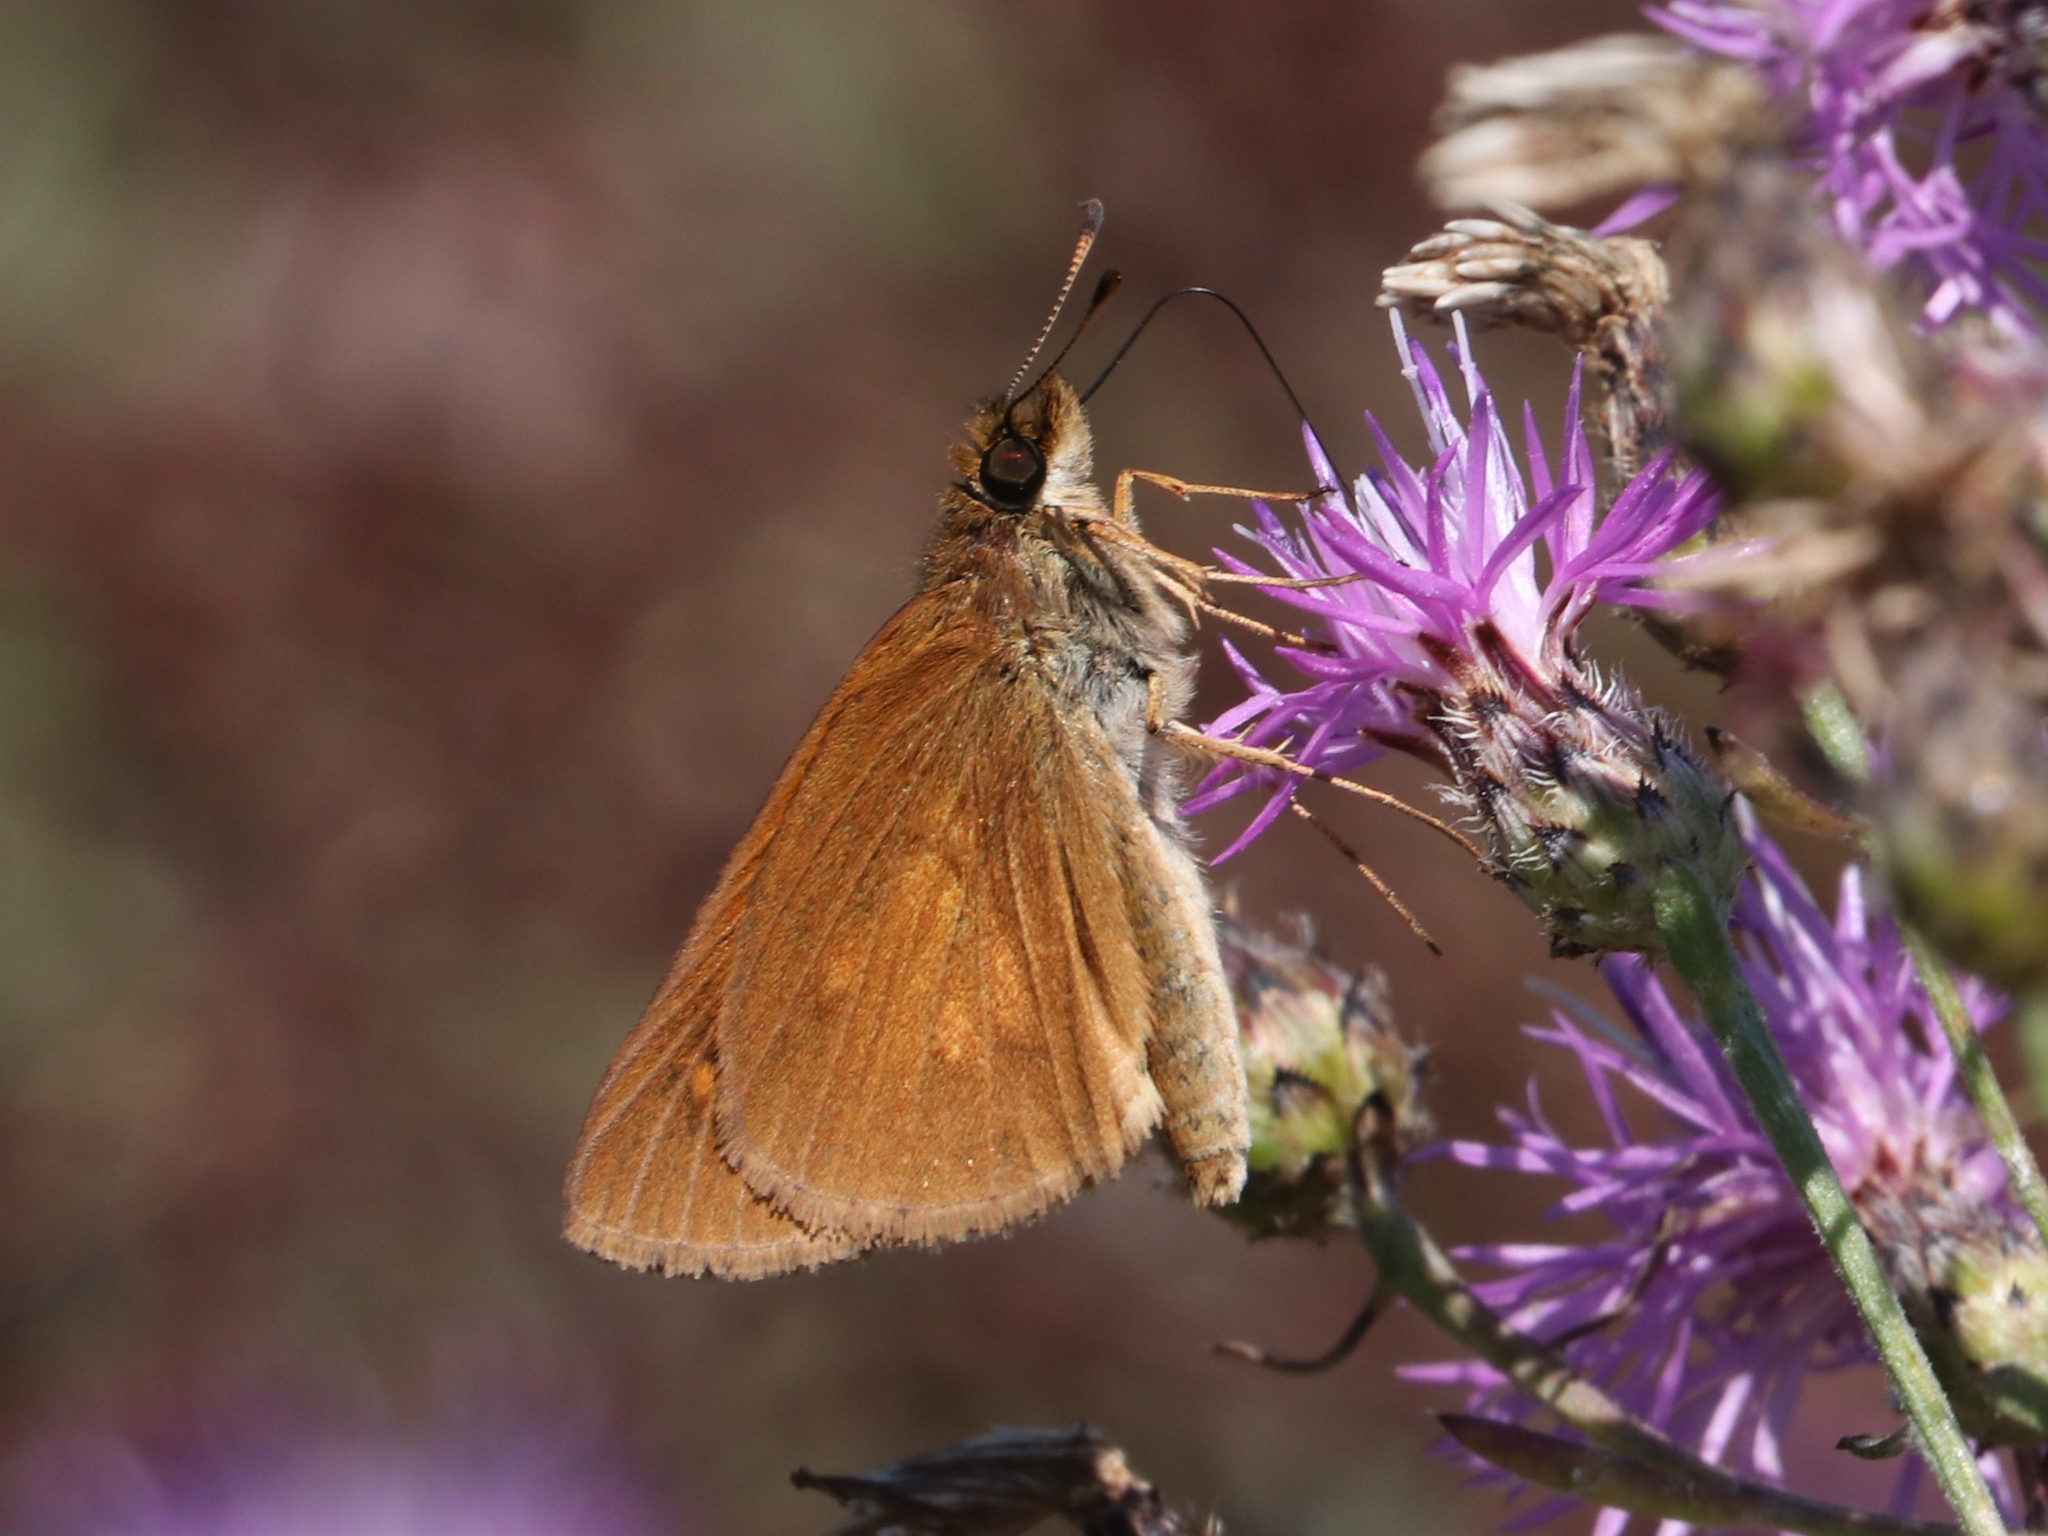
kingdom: Animalia
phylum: Arthropoda
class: Insecta
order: Lepidoptera
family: Hesperiidae
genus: Poanes
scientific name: Poanes viator
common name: Broad-winged skipper
